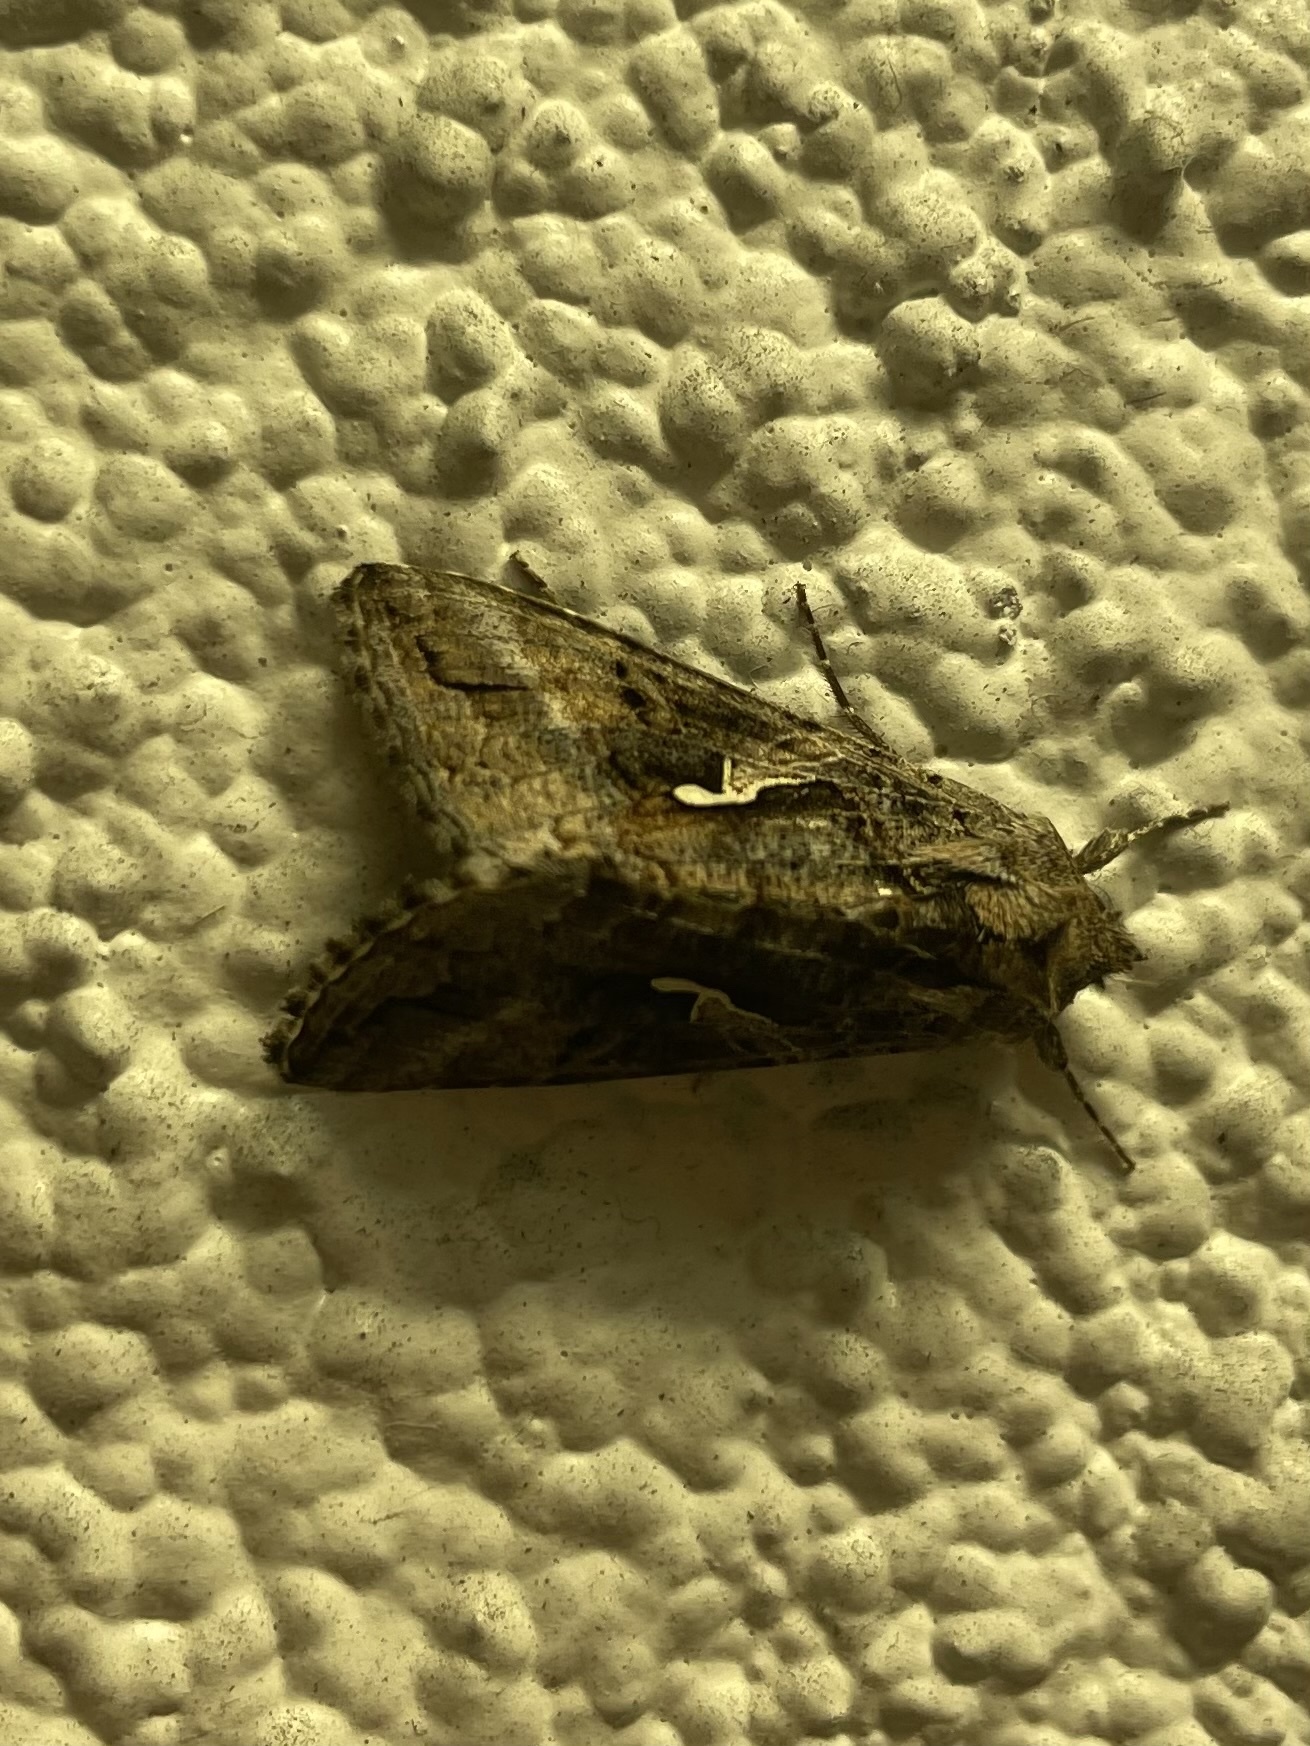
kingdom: Animalia
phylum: Arthropoda
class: Insecta
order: Lepidoptera
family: Noctuidae
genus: Autographa
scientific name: Autographa californica
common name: Alfalfa looper
